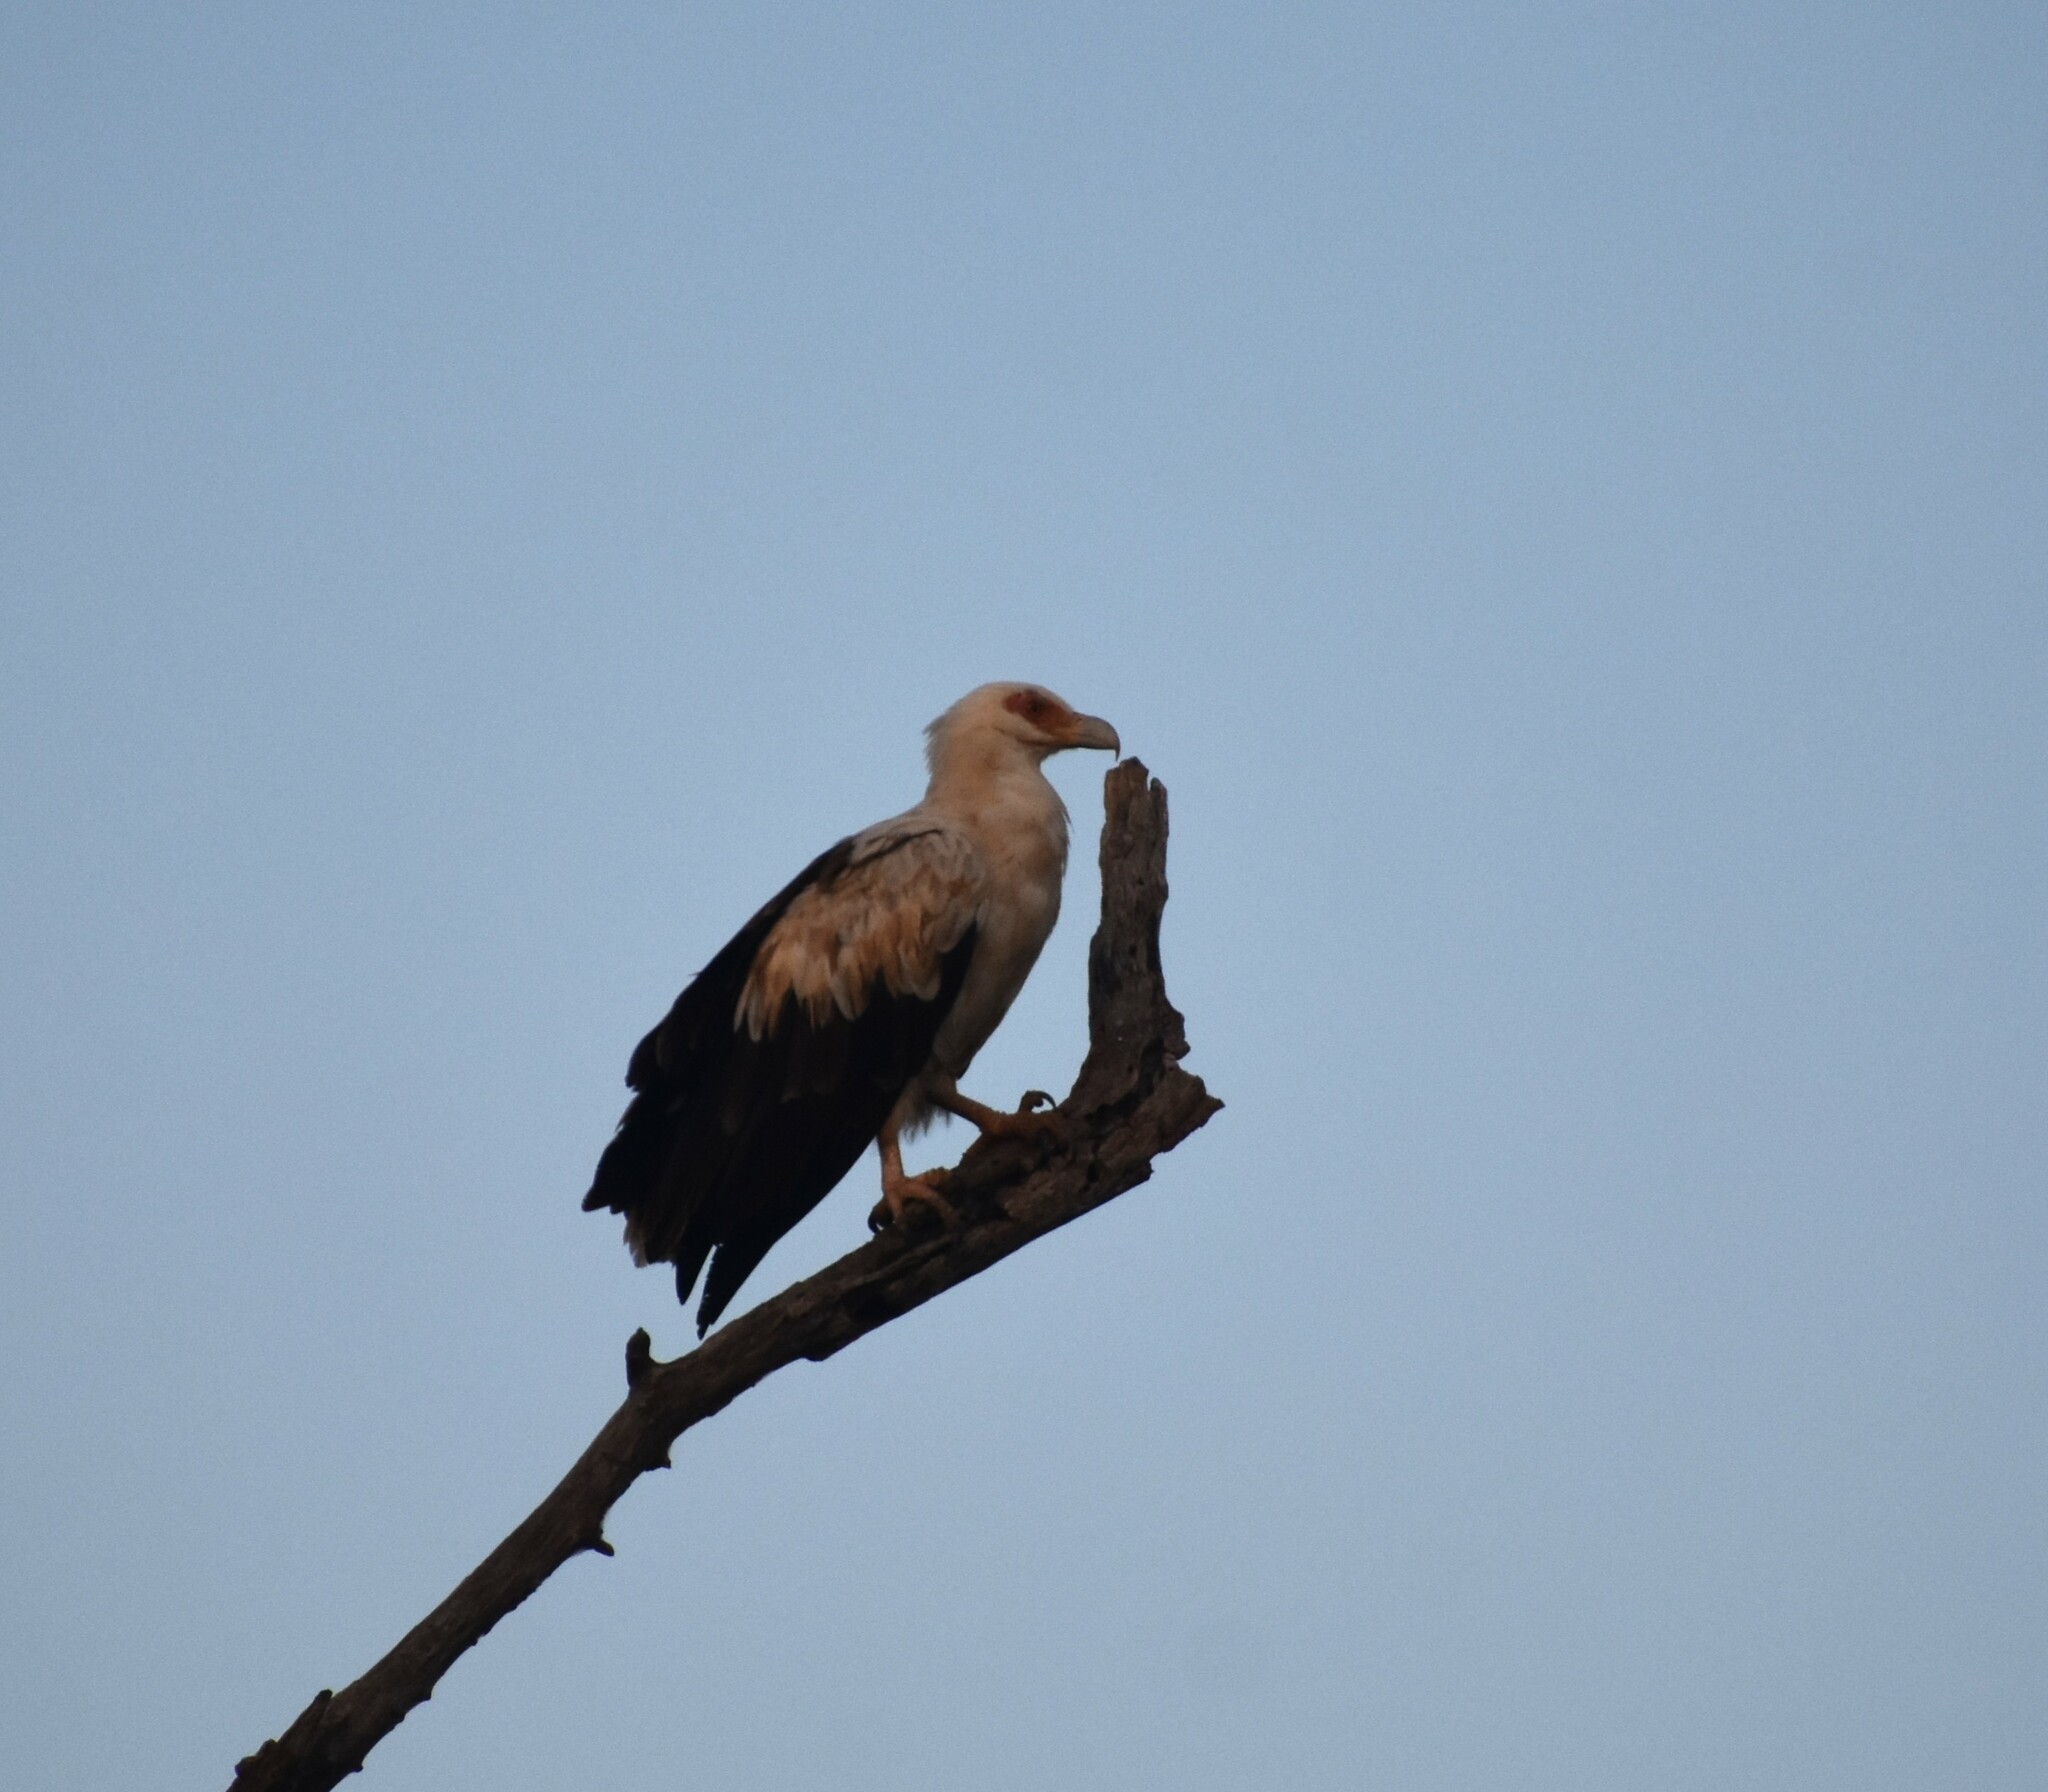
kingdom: Animalia
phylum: Chordata
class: Aves
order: Accipitriformes
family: Accipitridae
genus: Gypohierax
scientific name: Gypohierax angolensis
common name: Palm-nut vulture
